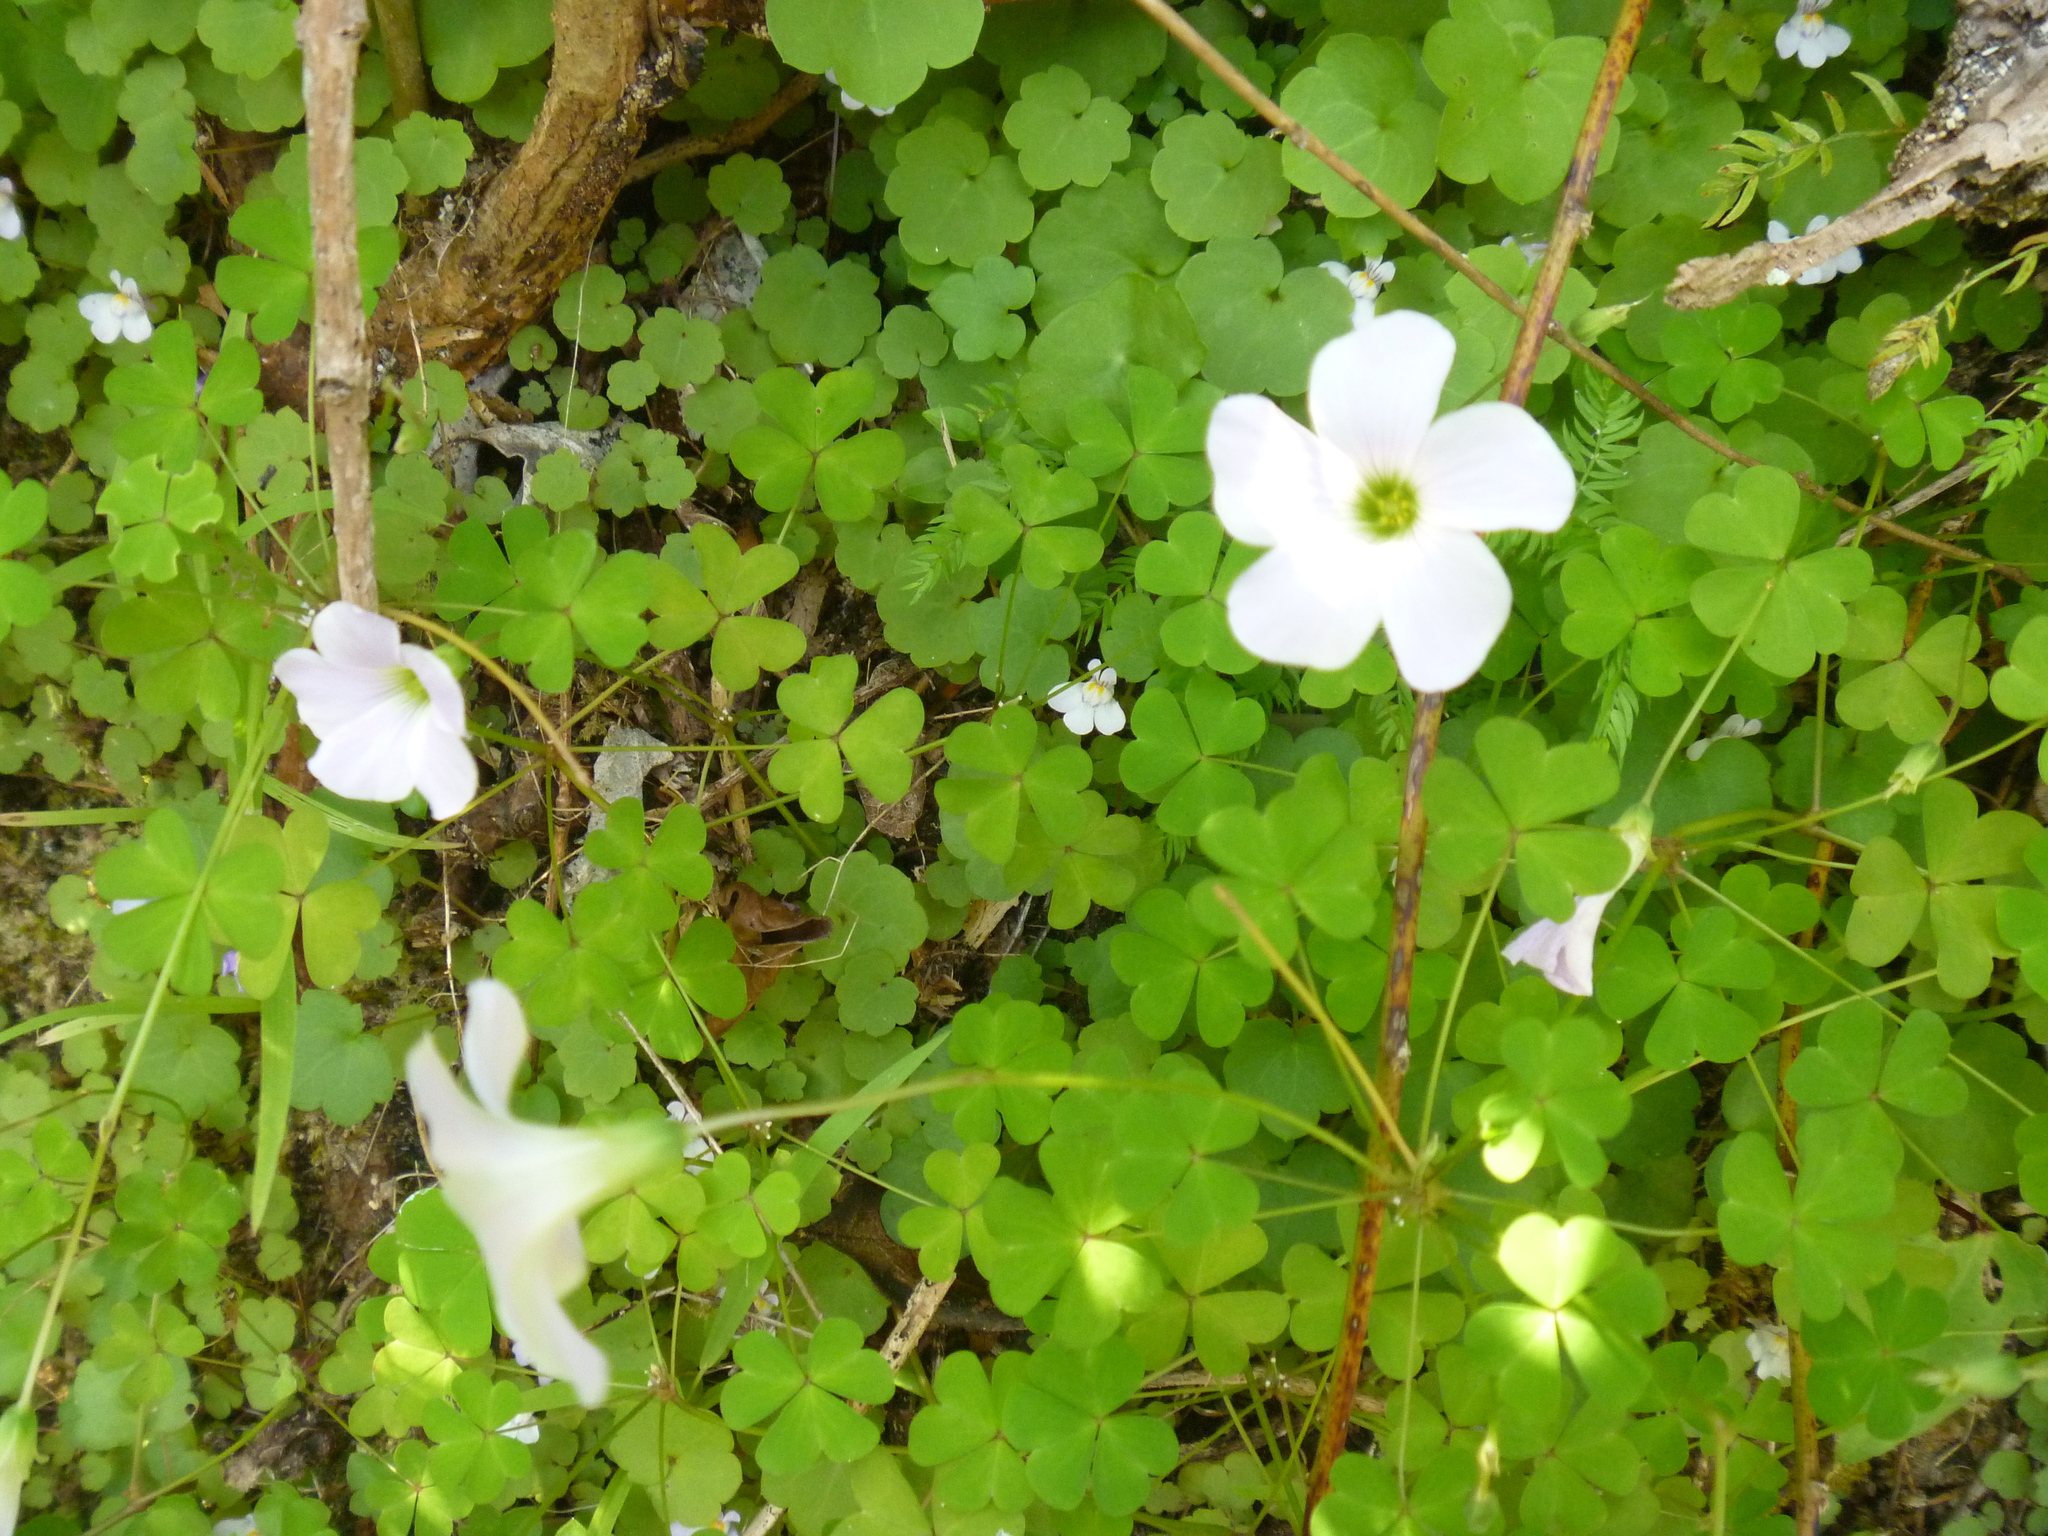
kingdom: Plantae
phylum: Tracheophyta
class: Magnoliopsida
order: Oxalidales
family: Oxalidaceae
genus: Oxalis
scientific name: Oxalis incarnata
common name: Pale pink-sorrel
